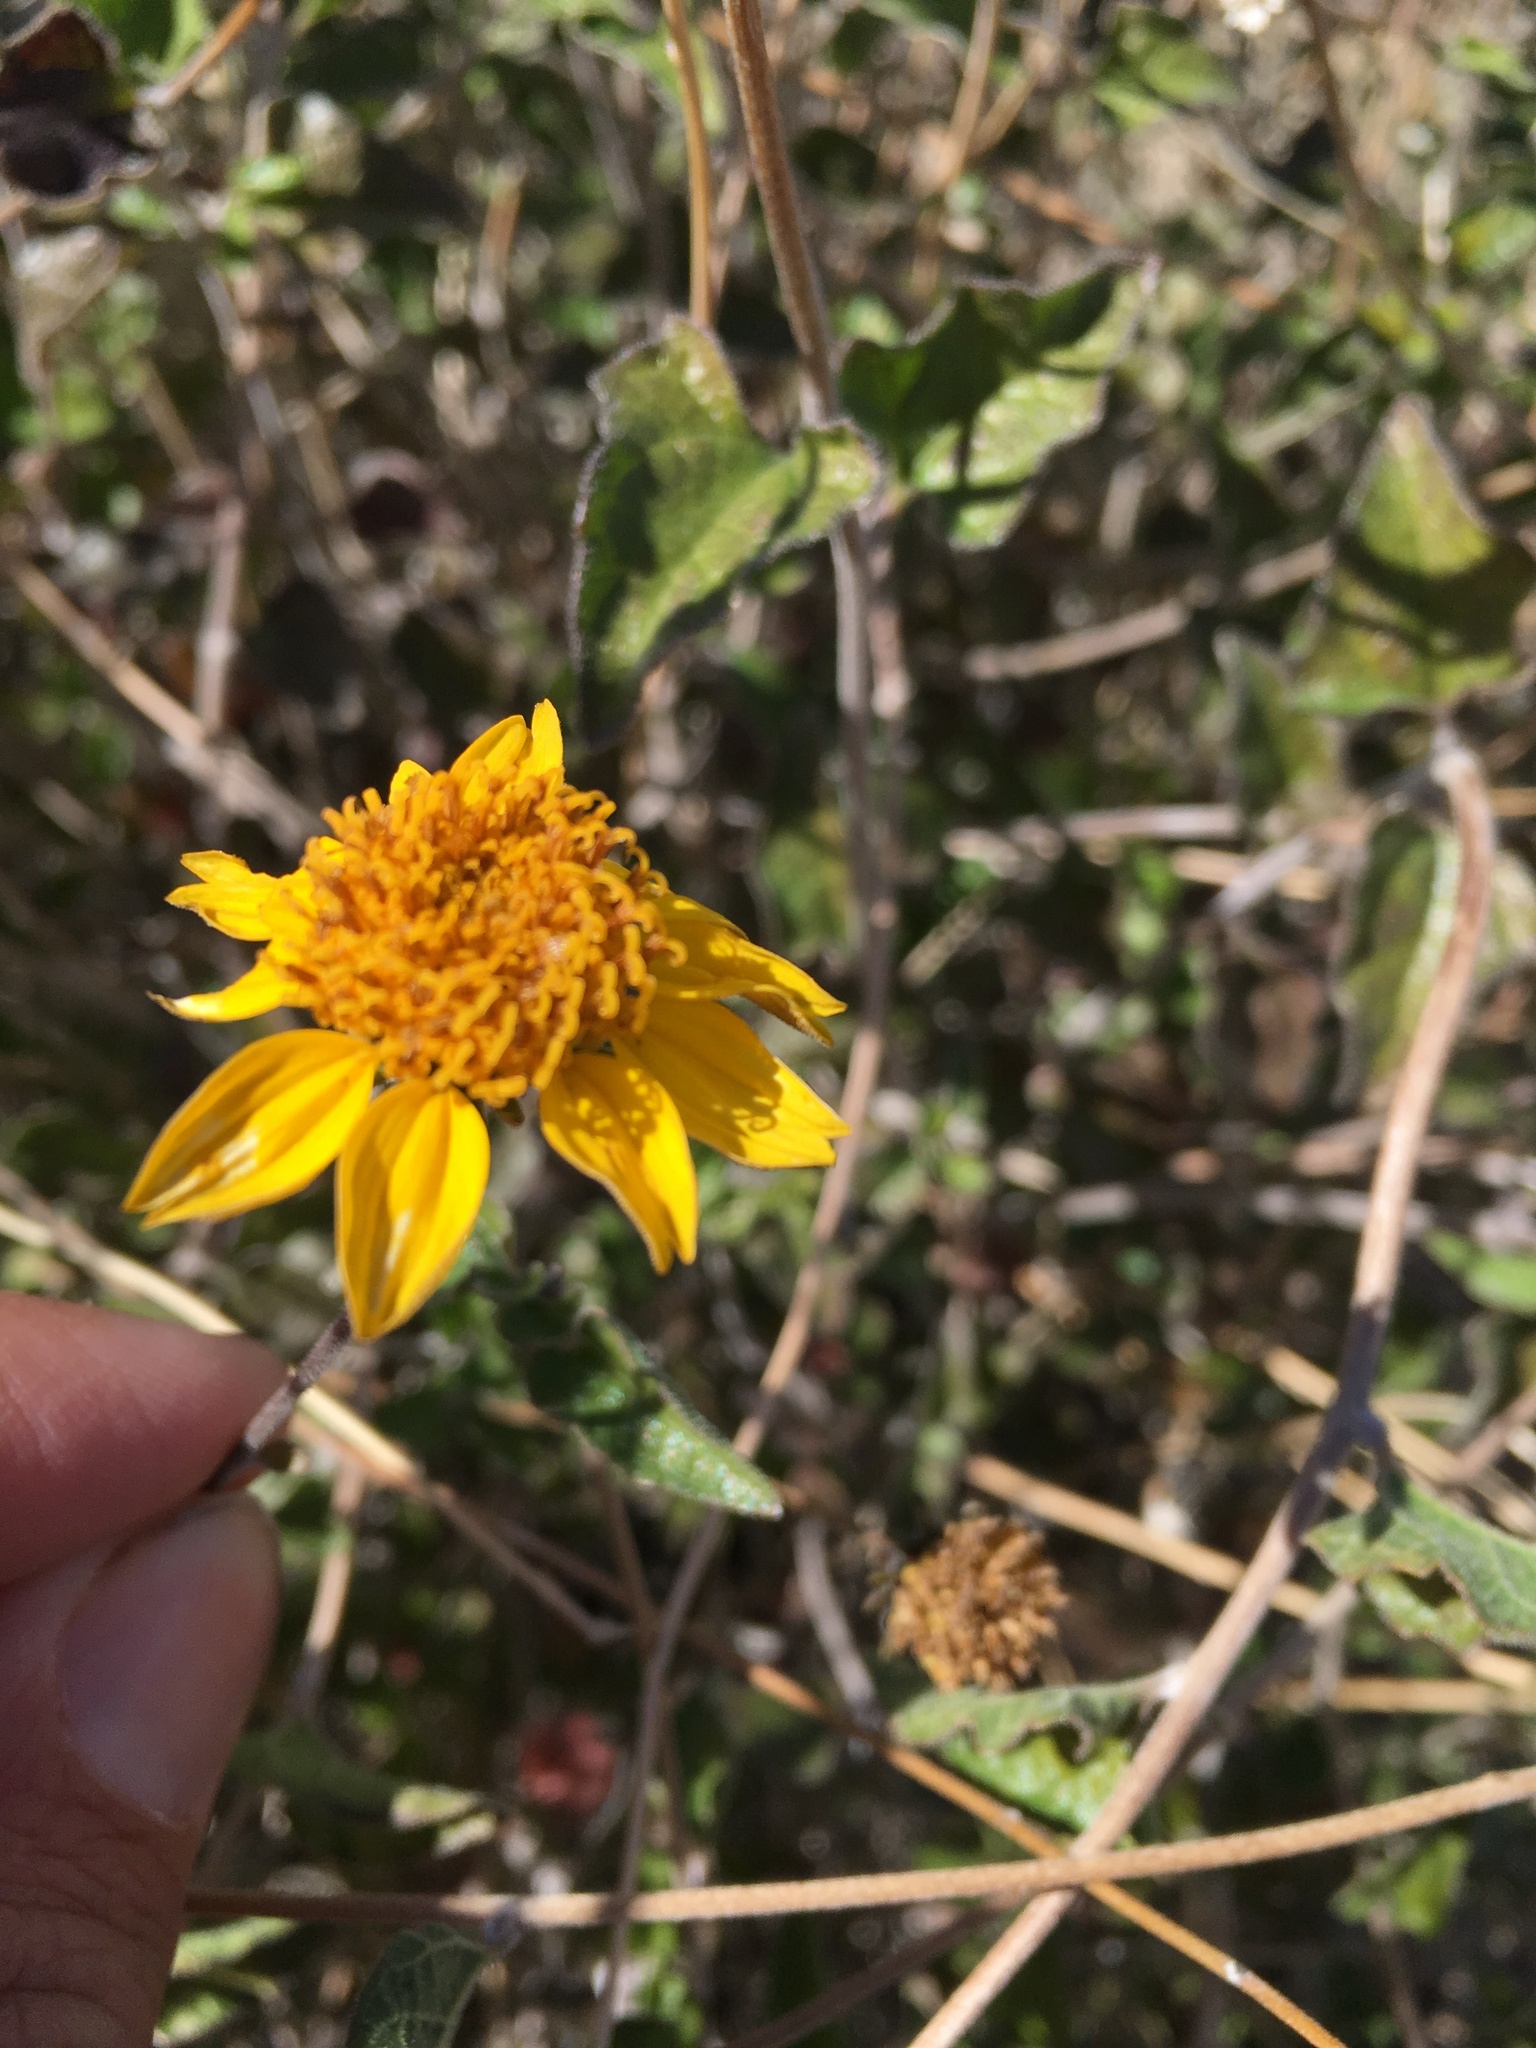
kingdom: Plantae
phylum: Tracheophyta
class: Magnoliopsida
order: Asterales
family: Asteraceae
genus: Bahiopsis
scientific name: Bahiopsis parishii
